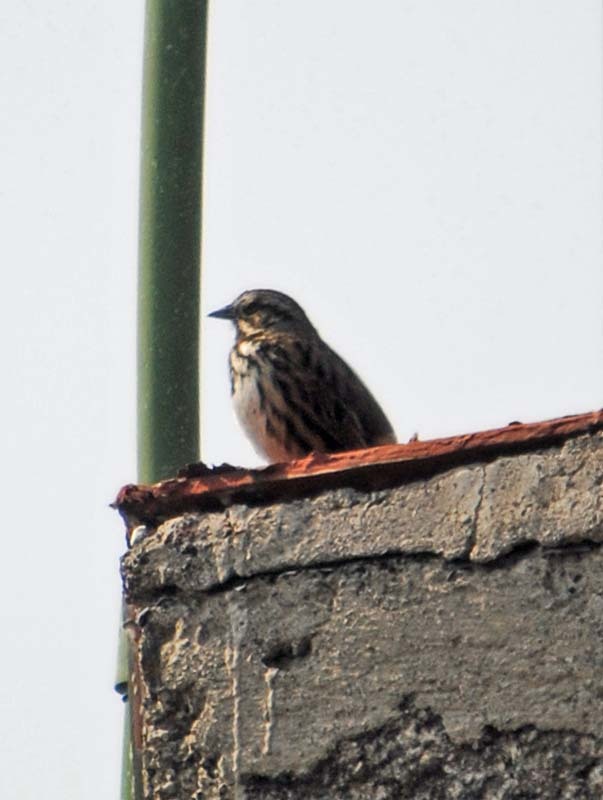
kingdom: Animalia
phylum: Chordata
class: Aves
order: Passeriformes
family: Passerellidae
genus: Melospiza
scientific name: Melospiza melodia
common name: Song sparrow
